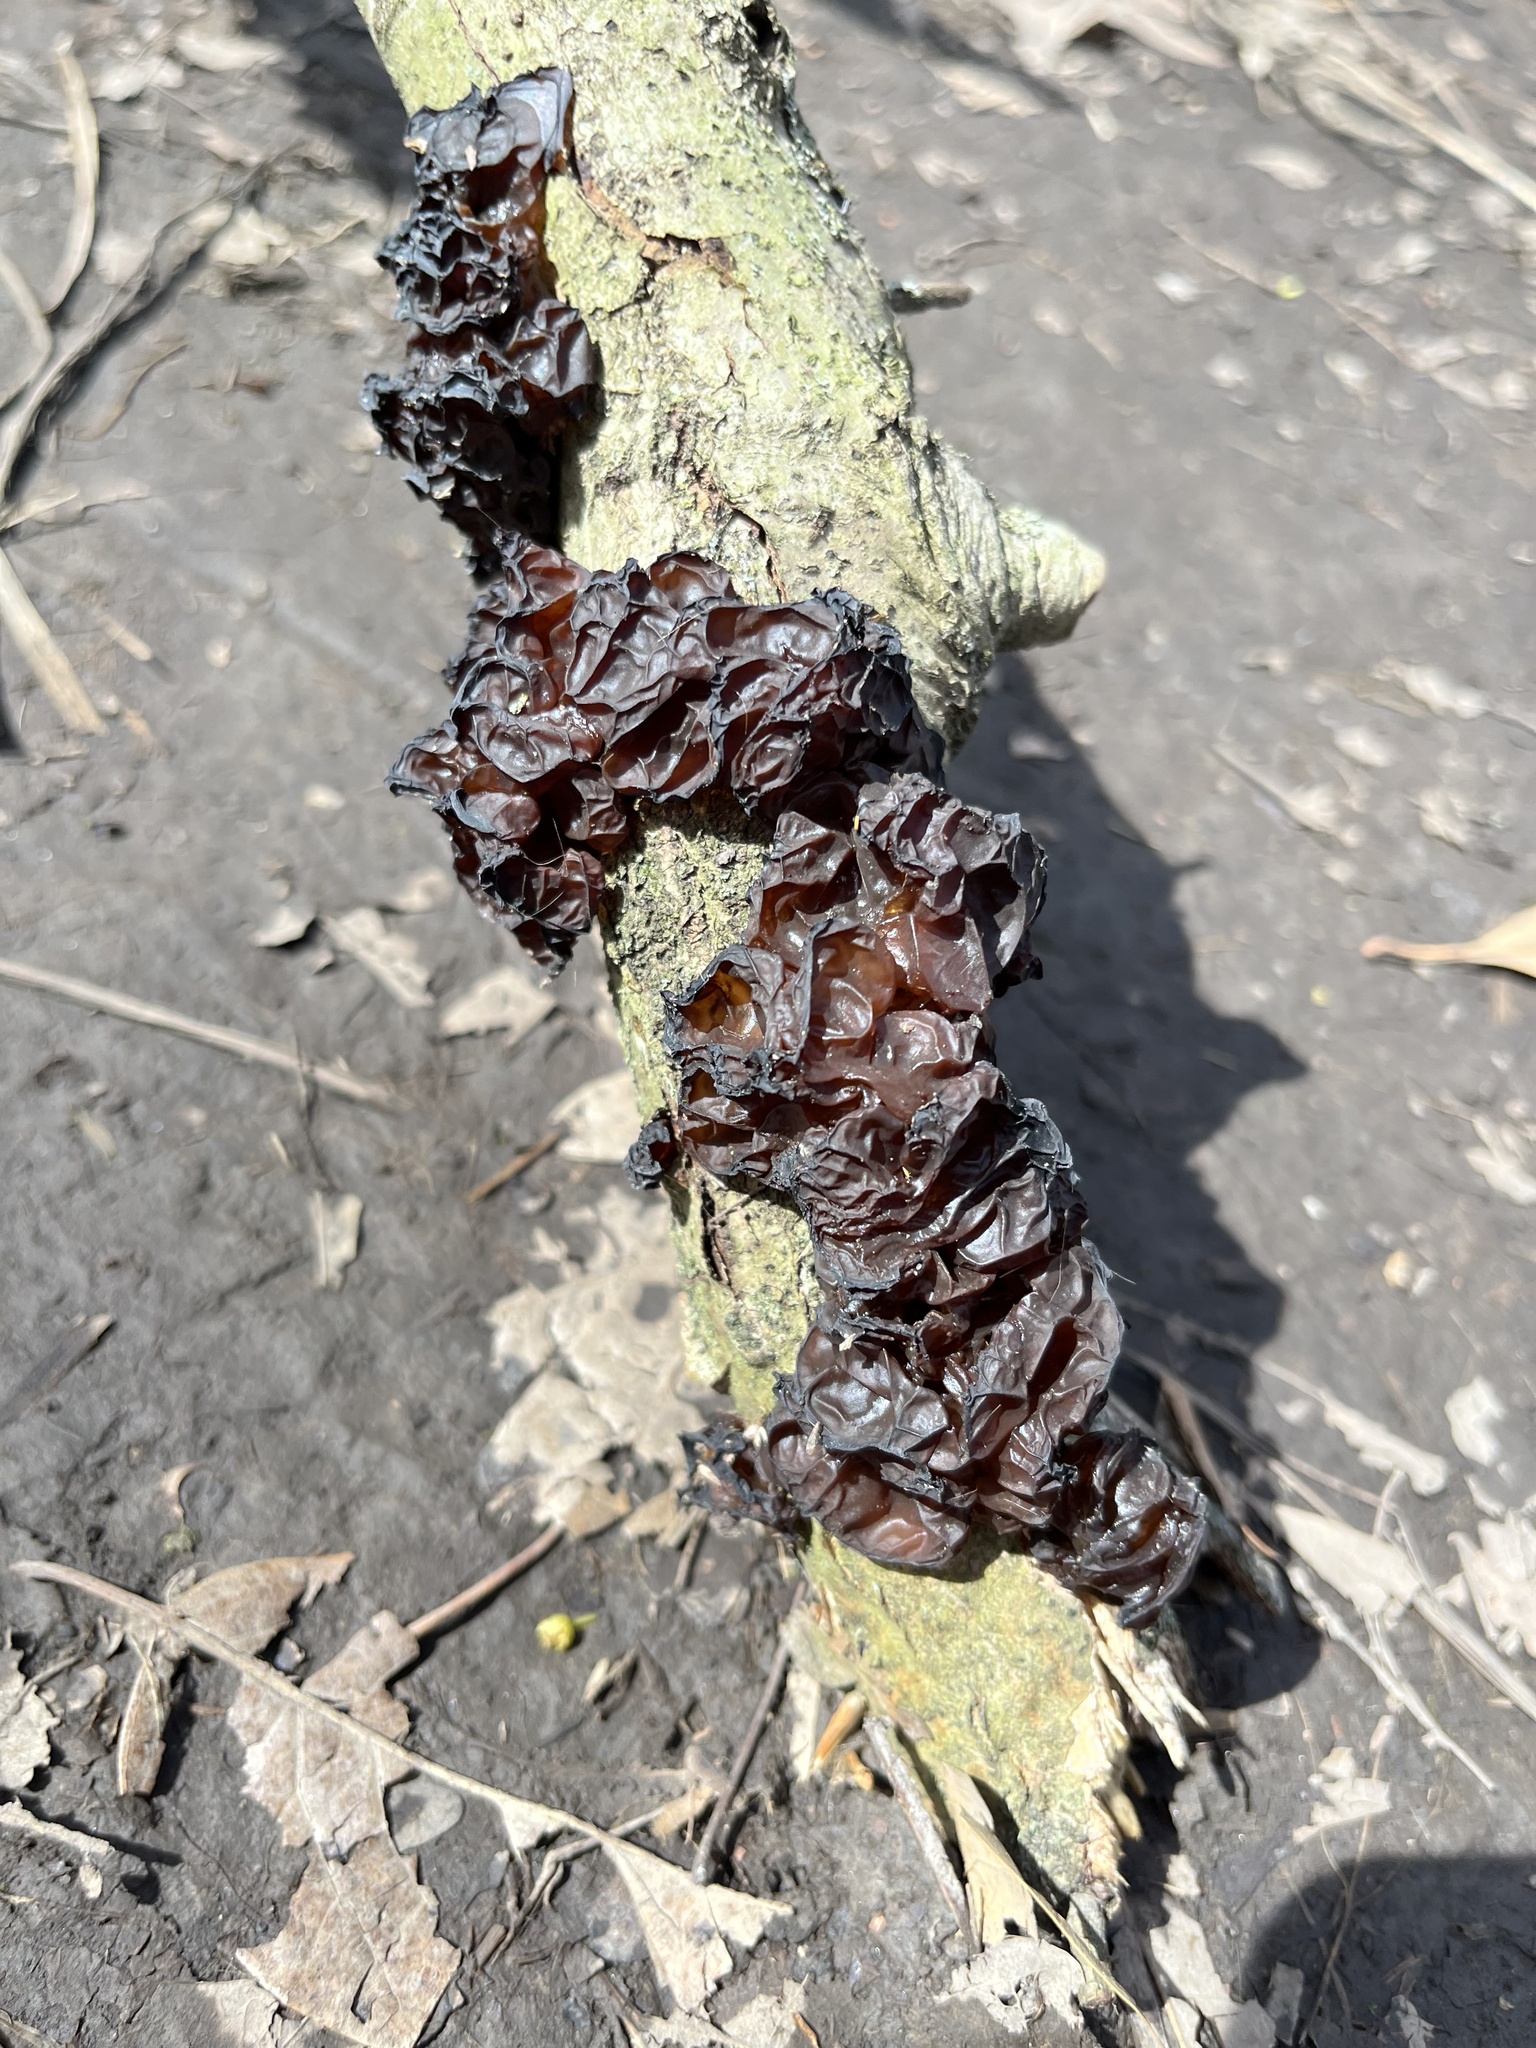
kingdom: Fungi
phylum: Basidiomycota
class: Agaricomycetes
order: Auriculariales
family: Auriculariaceae
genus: Exidia
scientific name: Exidia
